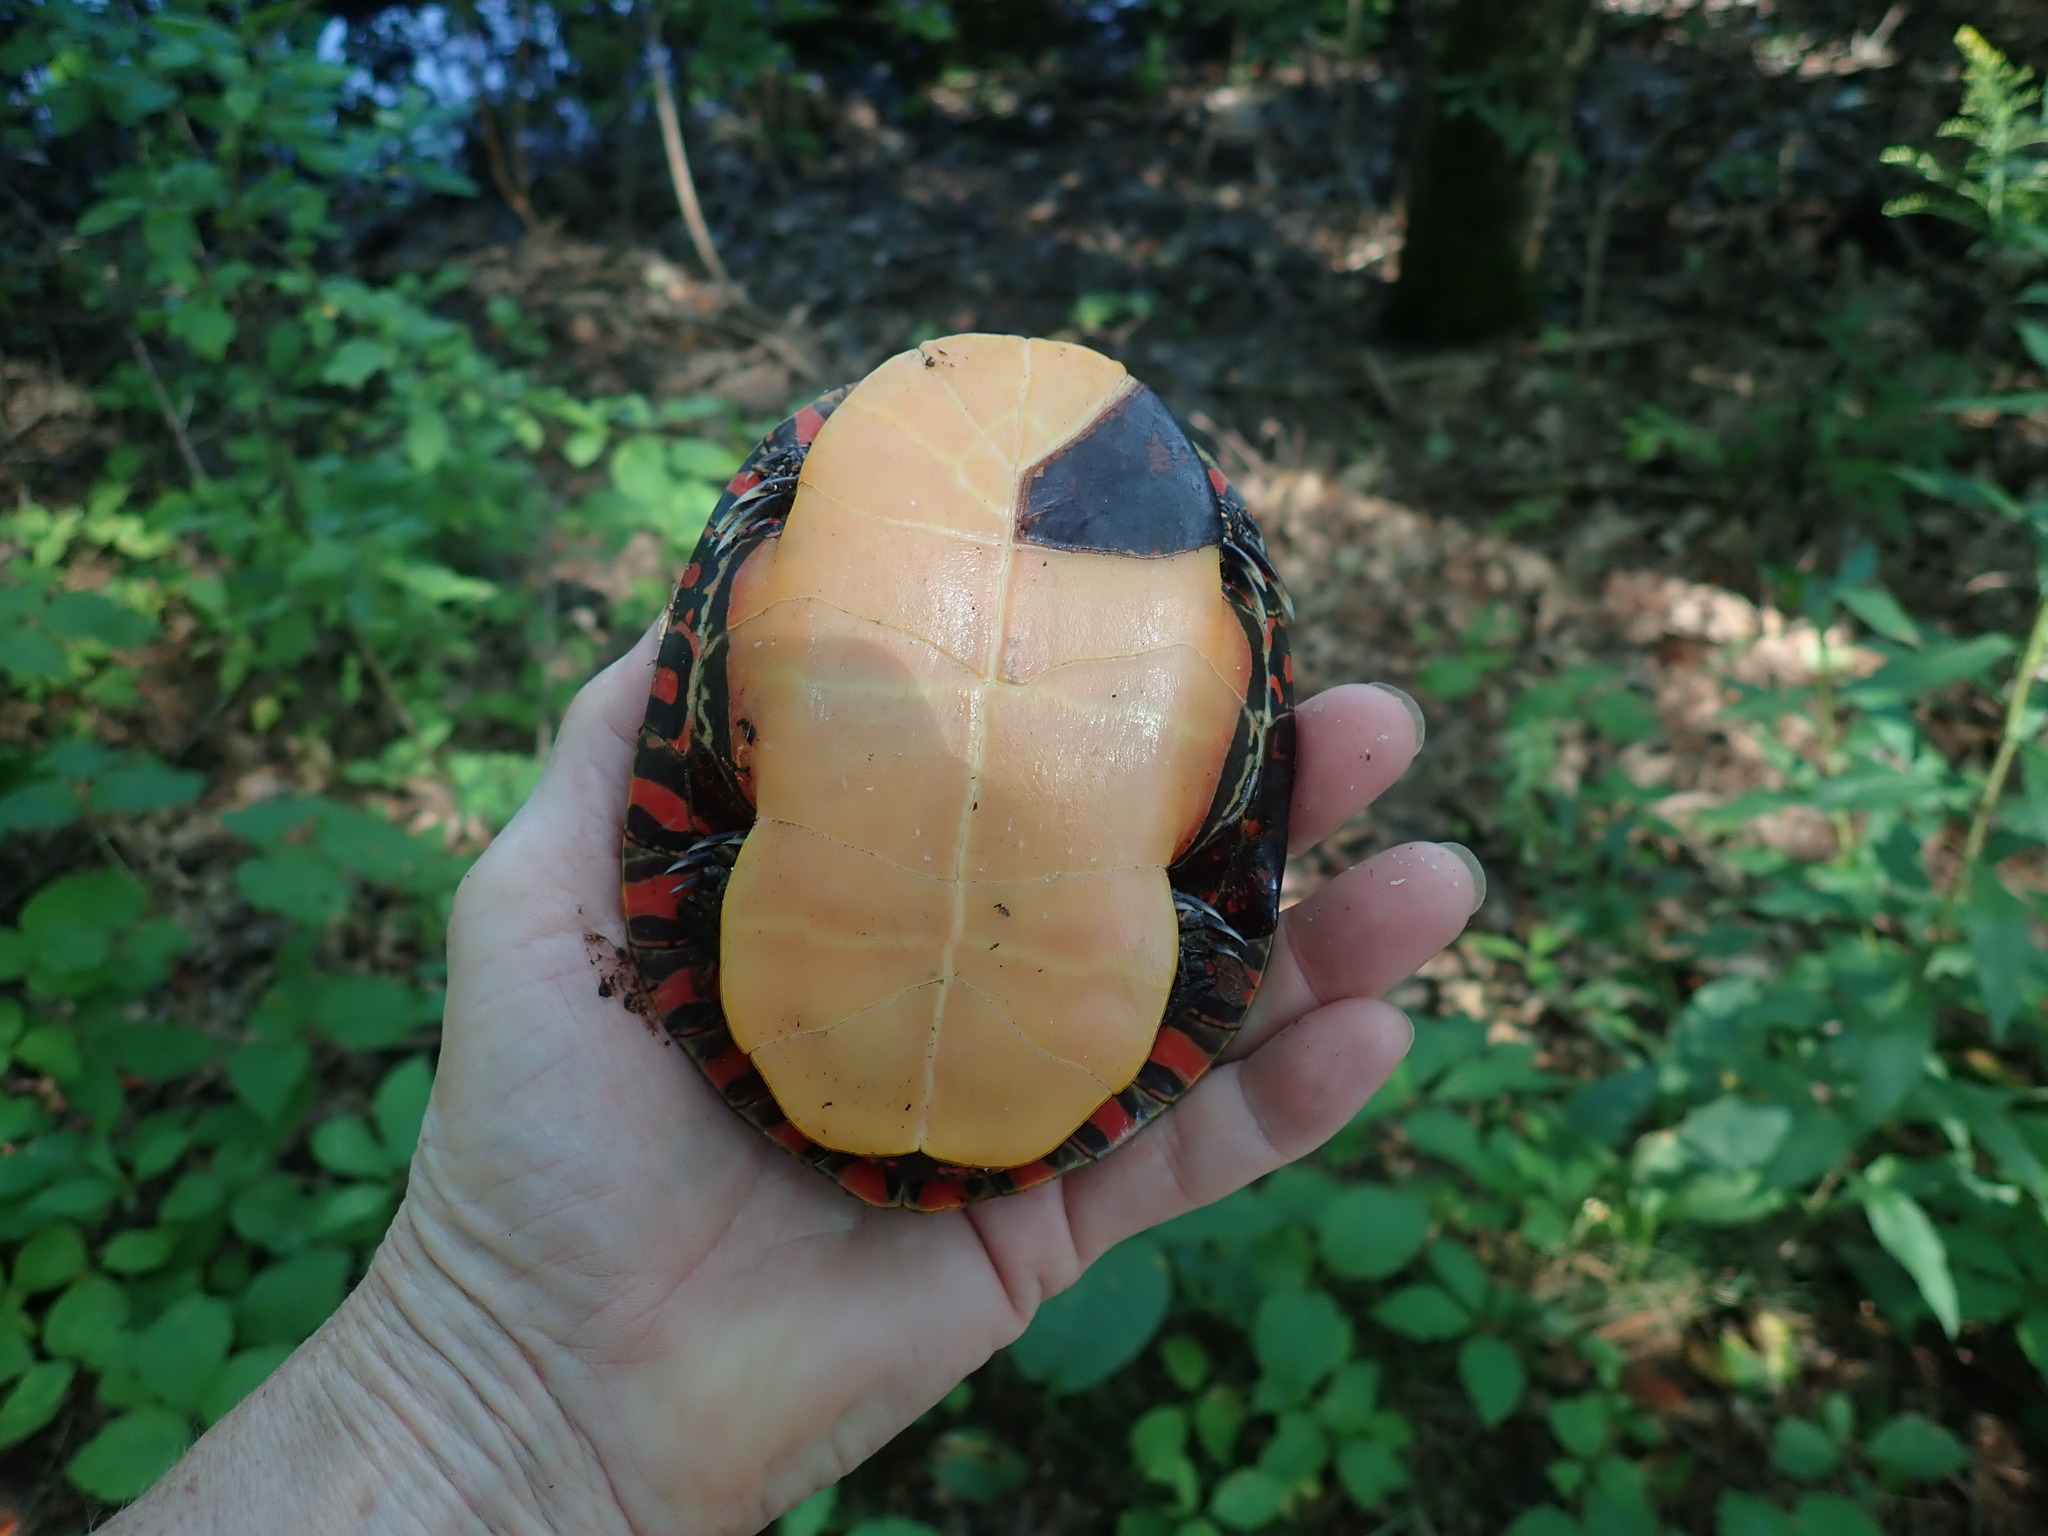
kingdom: Animalia
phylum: Chordata
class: Testudines
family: Emydidae
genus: Chrysemys
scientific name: Chrysemys picta
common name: Painted turtle
